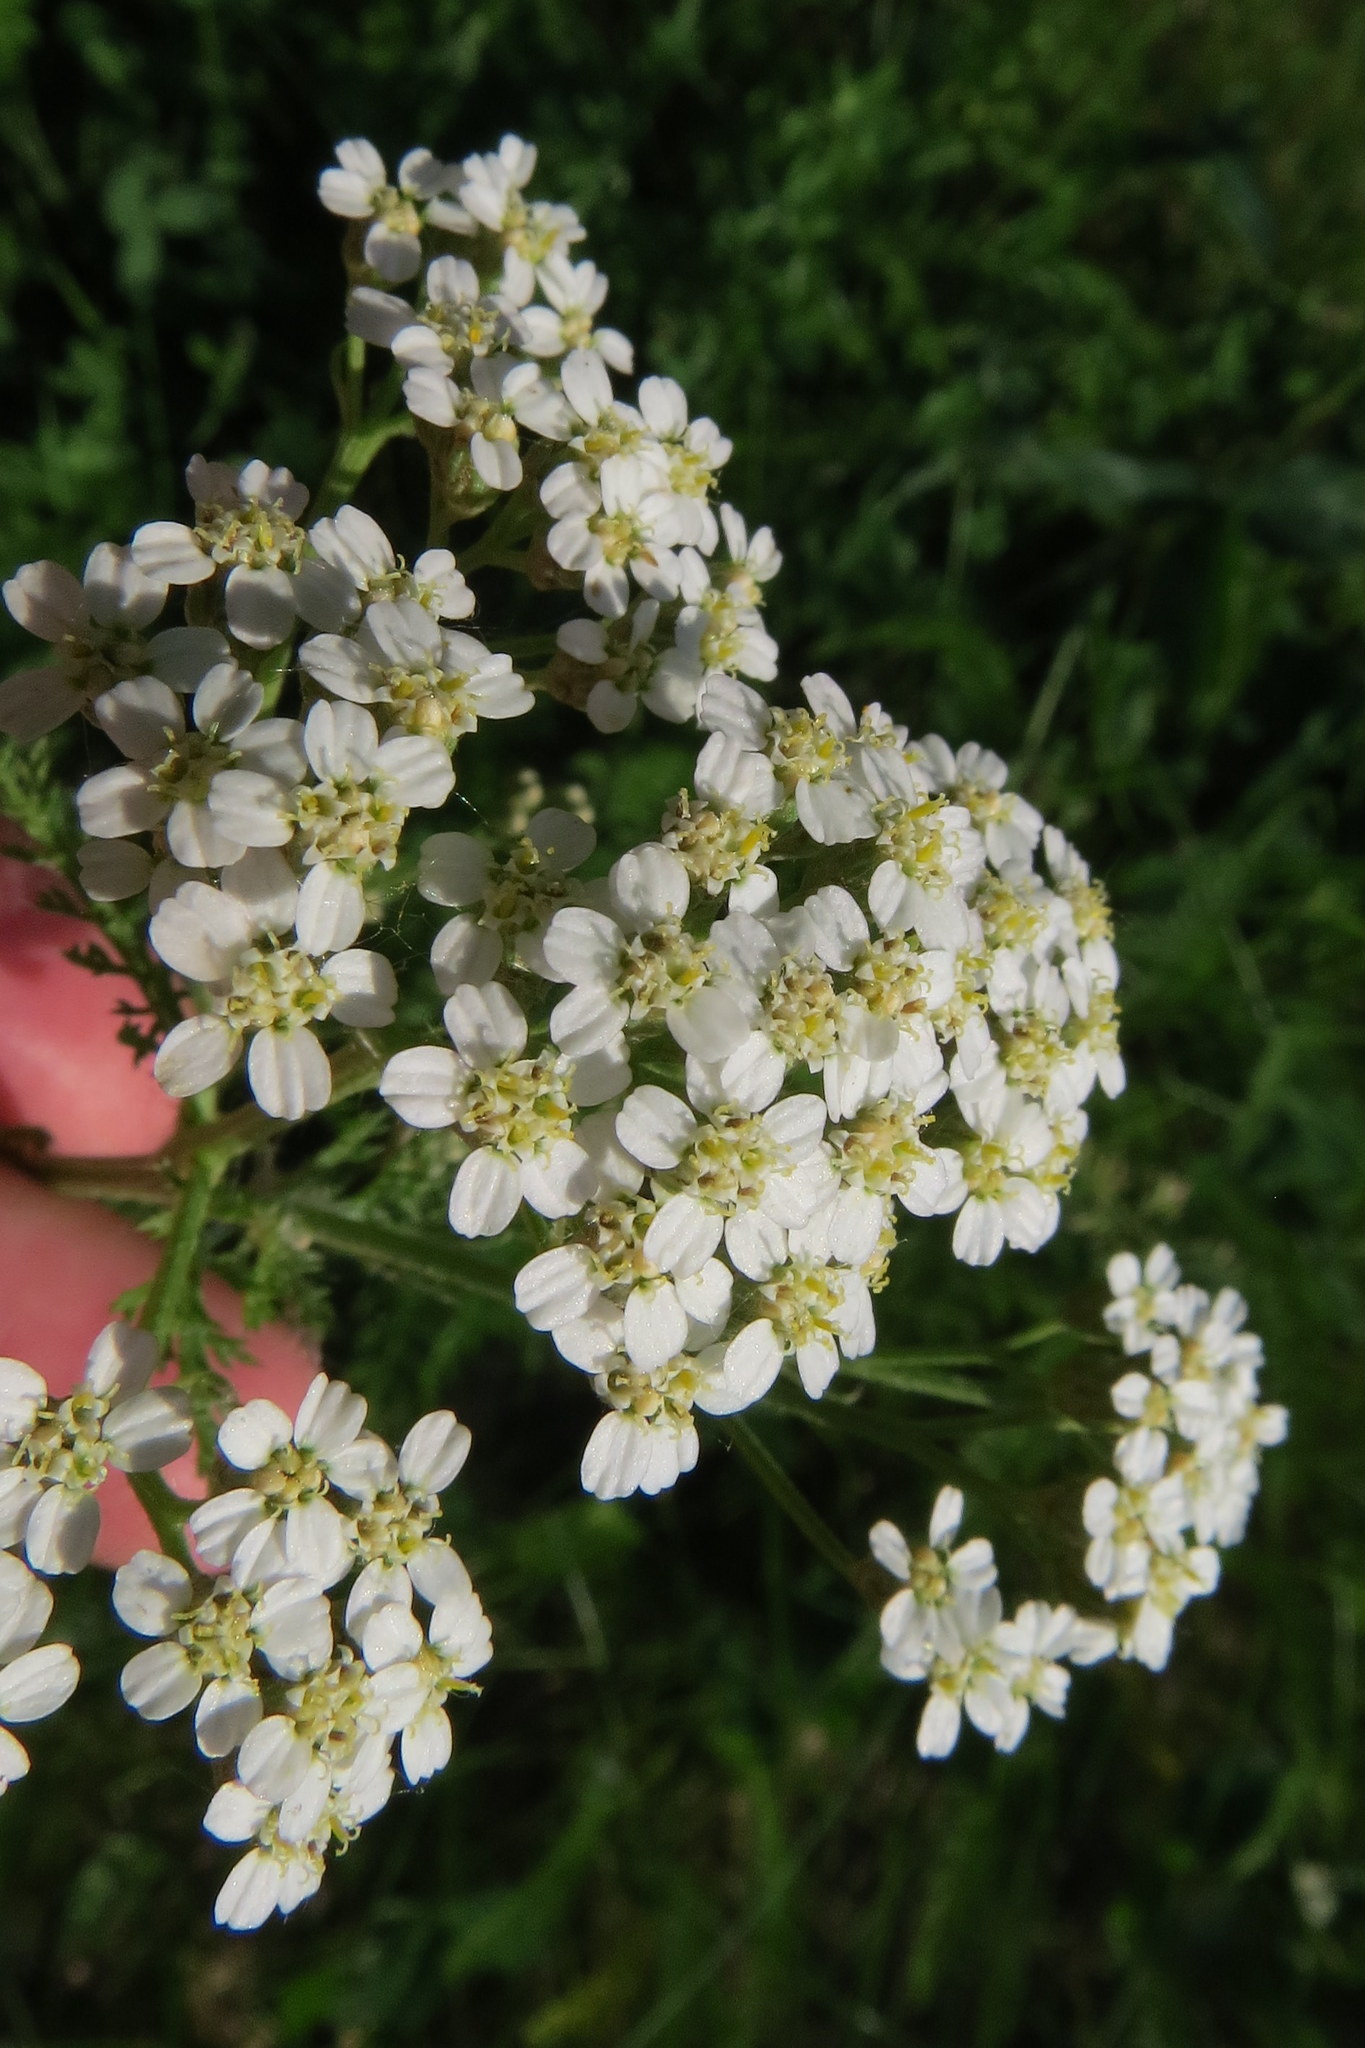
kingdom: Plantae
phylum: Tracheophyta
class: Magnoliopsida
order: Asterales
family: Asteraceae
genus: Achillea
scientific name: Achillea millefolium
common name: Yarrow
